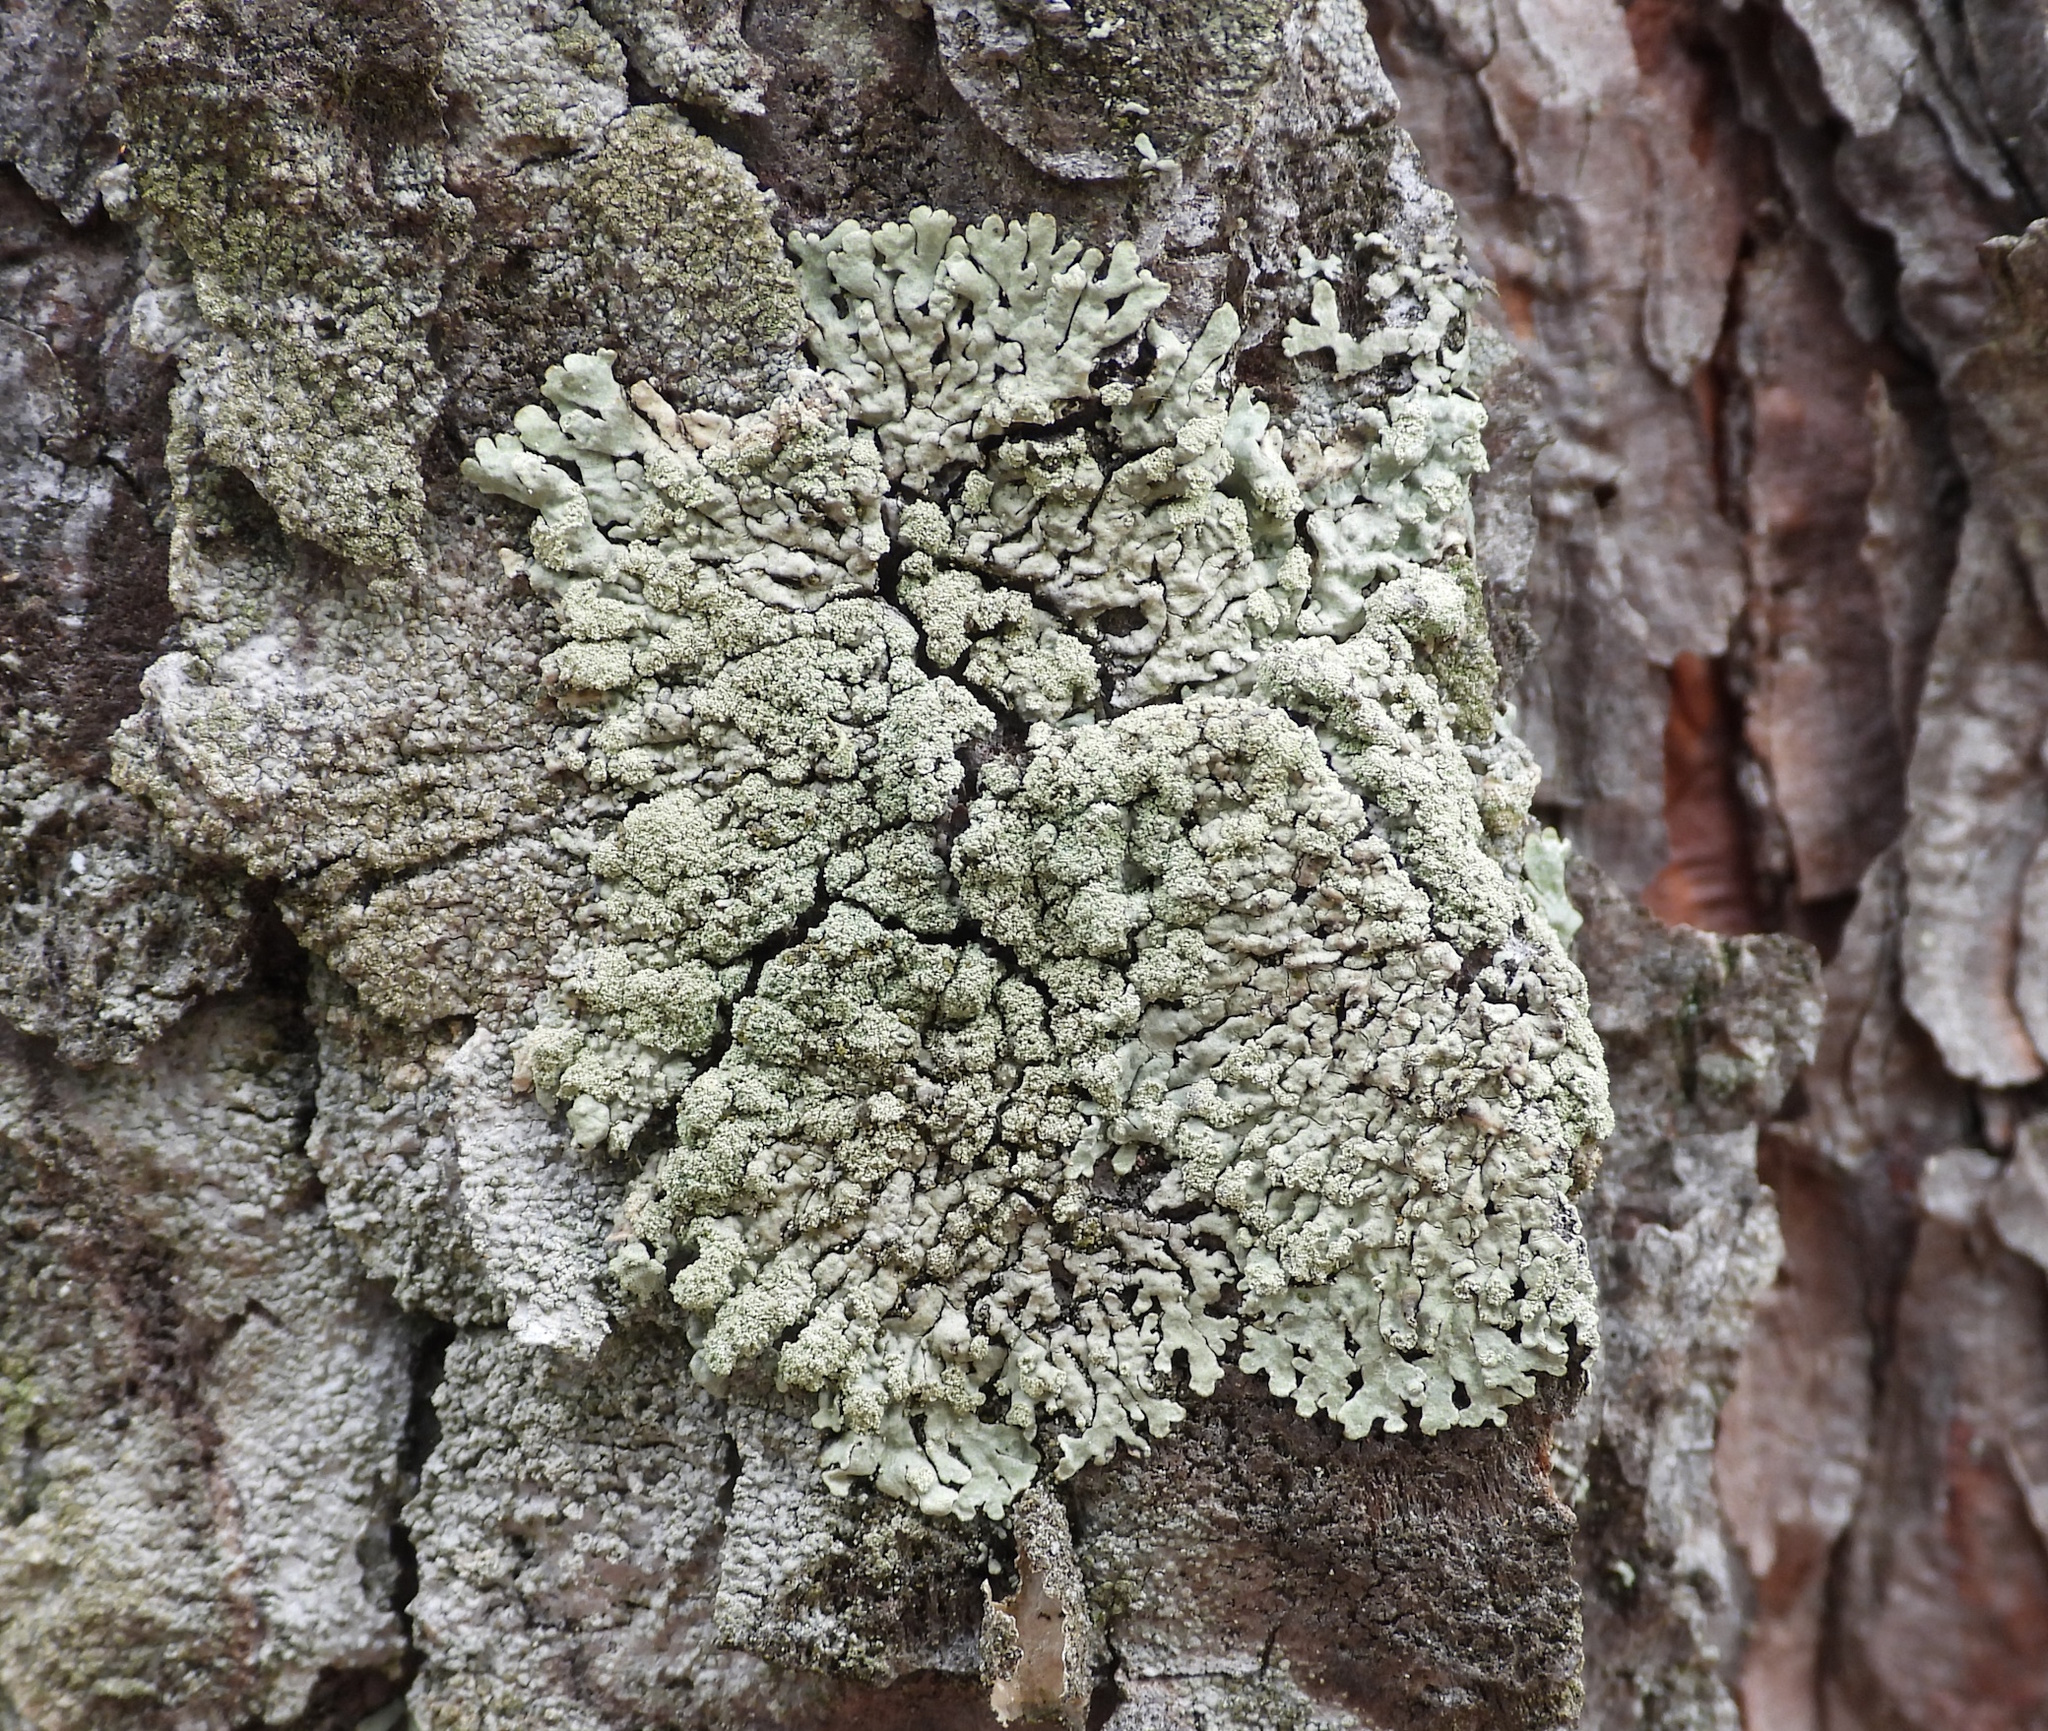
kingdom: Fungi
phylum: Ascomycota
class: Lecanoromycetes
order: Lecanorales
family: Parmeliaceae
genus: Parmeliopsis
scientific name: Parmeliopsis ambigua
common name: Green starburst lichen
